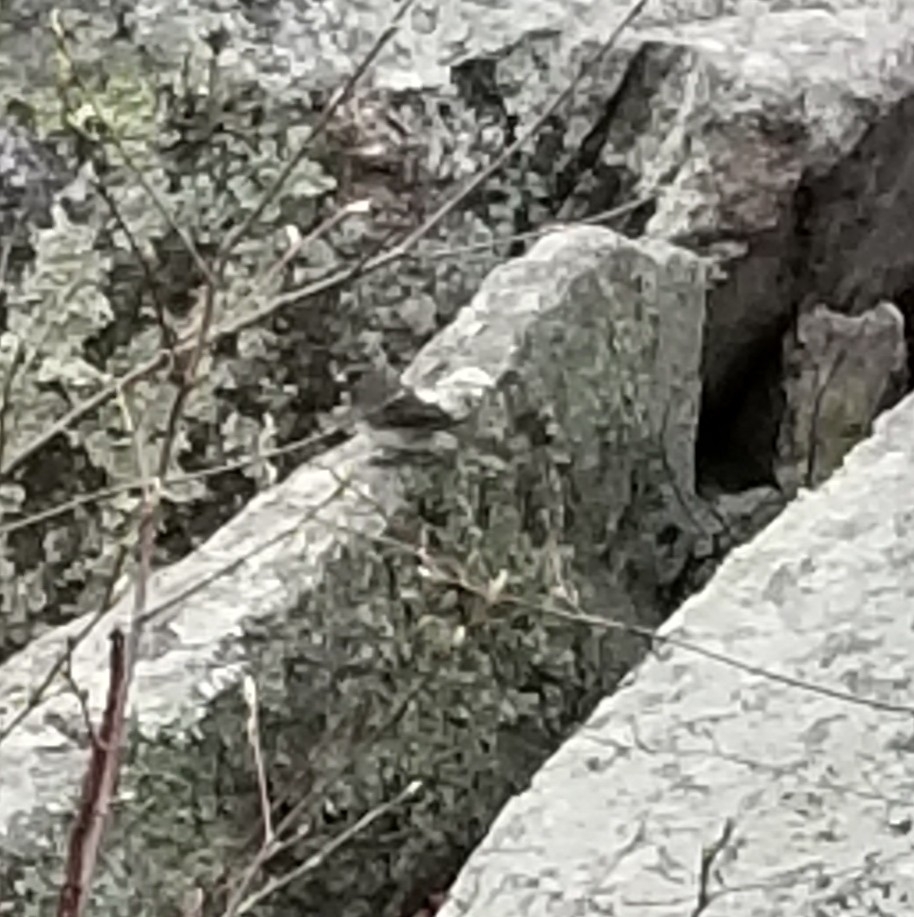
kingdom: Animalia
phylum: Chordata
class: Aves
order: Passeriformes
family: Passerellidae
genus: Junco
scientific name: Junco hyemalis
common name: Dark-eyed junco
